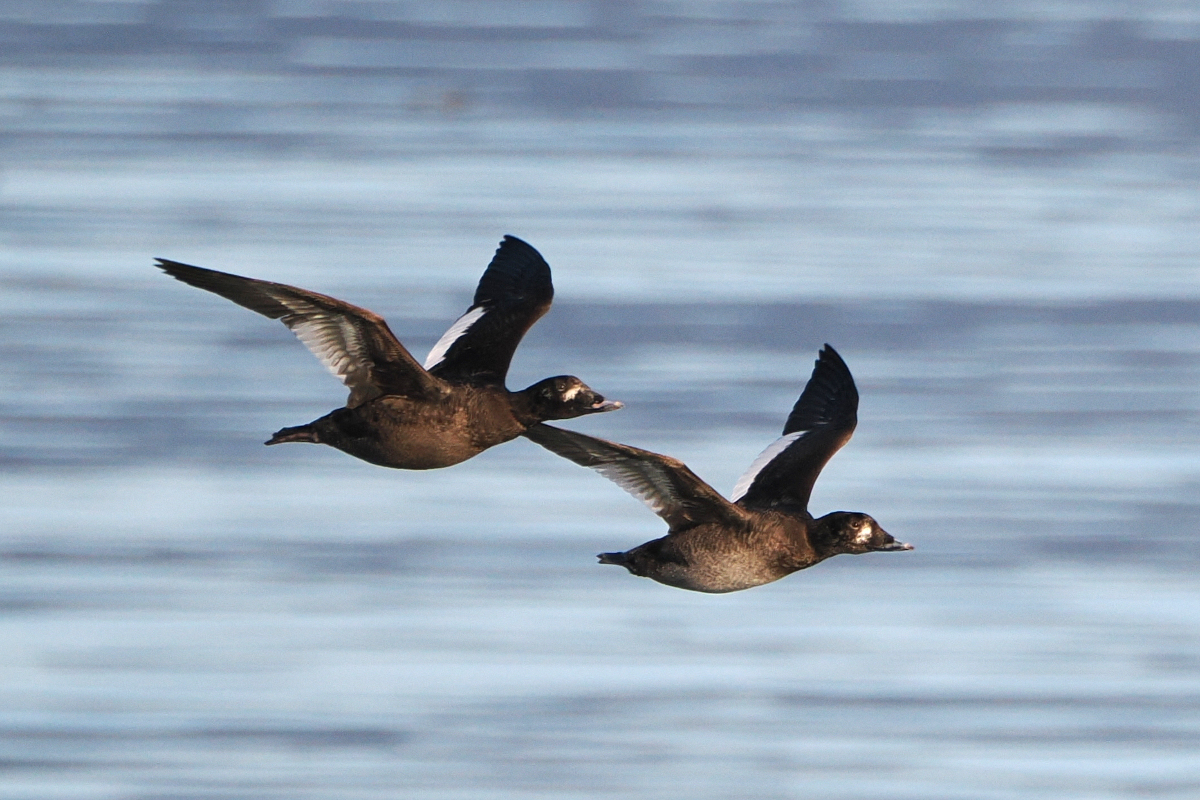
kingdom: Animalia
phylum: Chordata
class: Aves
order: Anseriformes
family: Anatidae
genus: Melanitta
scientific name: Melanitta deglandi
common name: White-winged scoter
